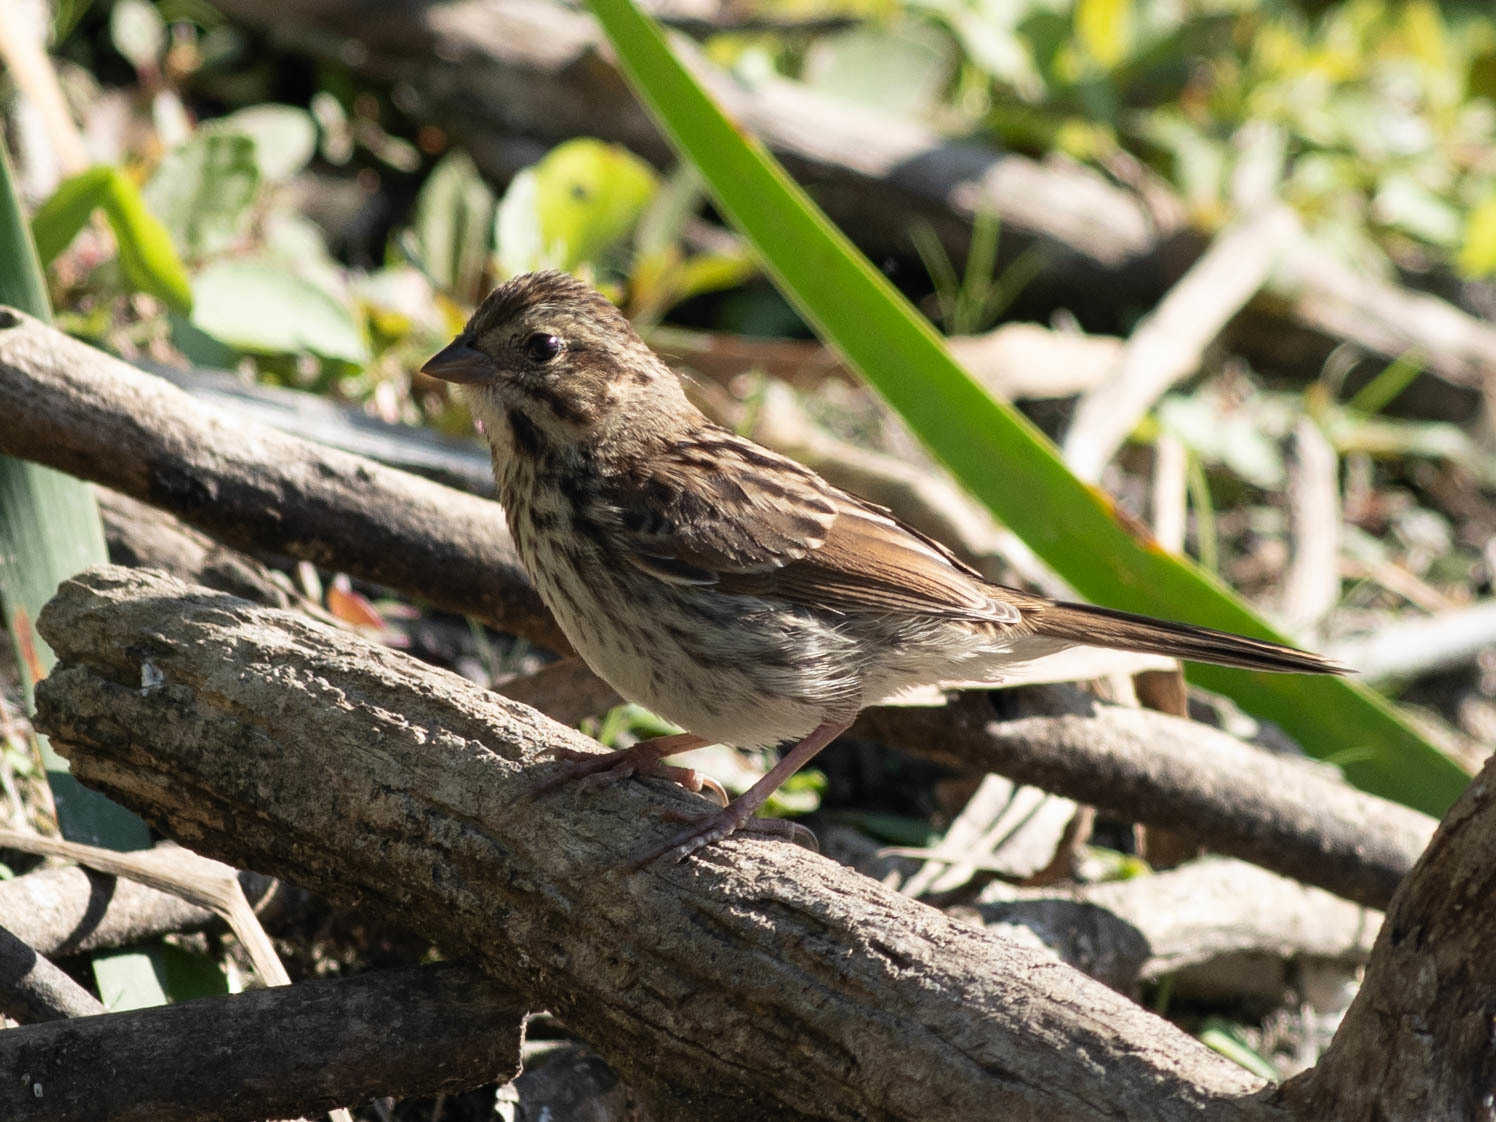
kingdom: Animalia
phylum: Chordata
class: Aves
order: Passeriformes
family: Passerellidae
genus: Melospiza
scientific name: Melospiza melodia
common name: Song sparrow
